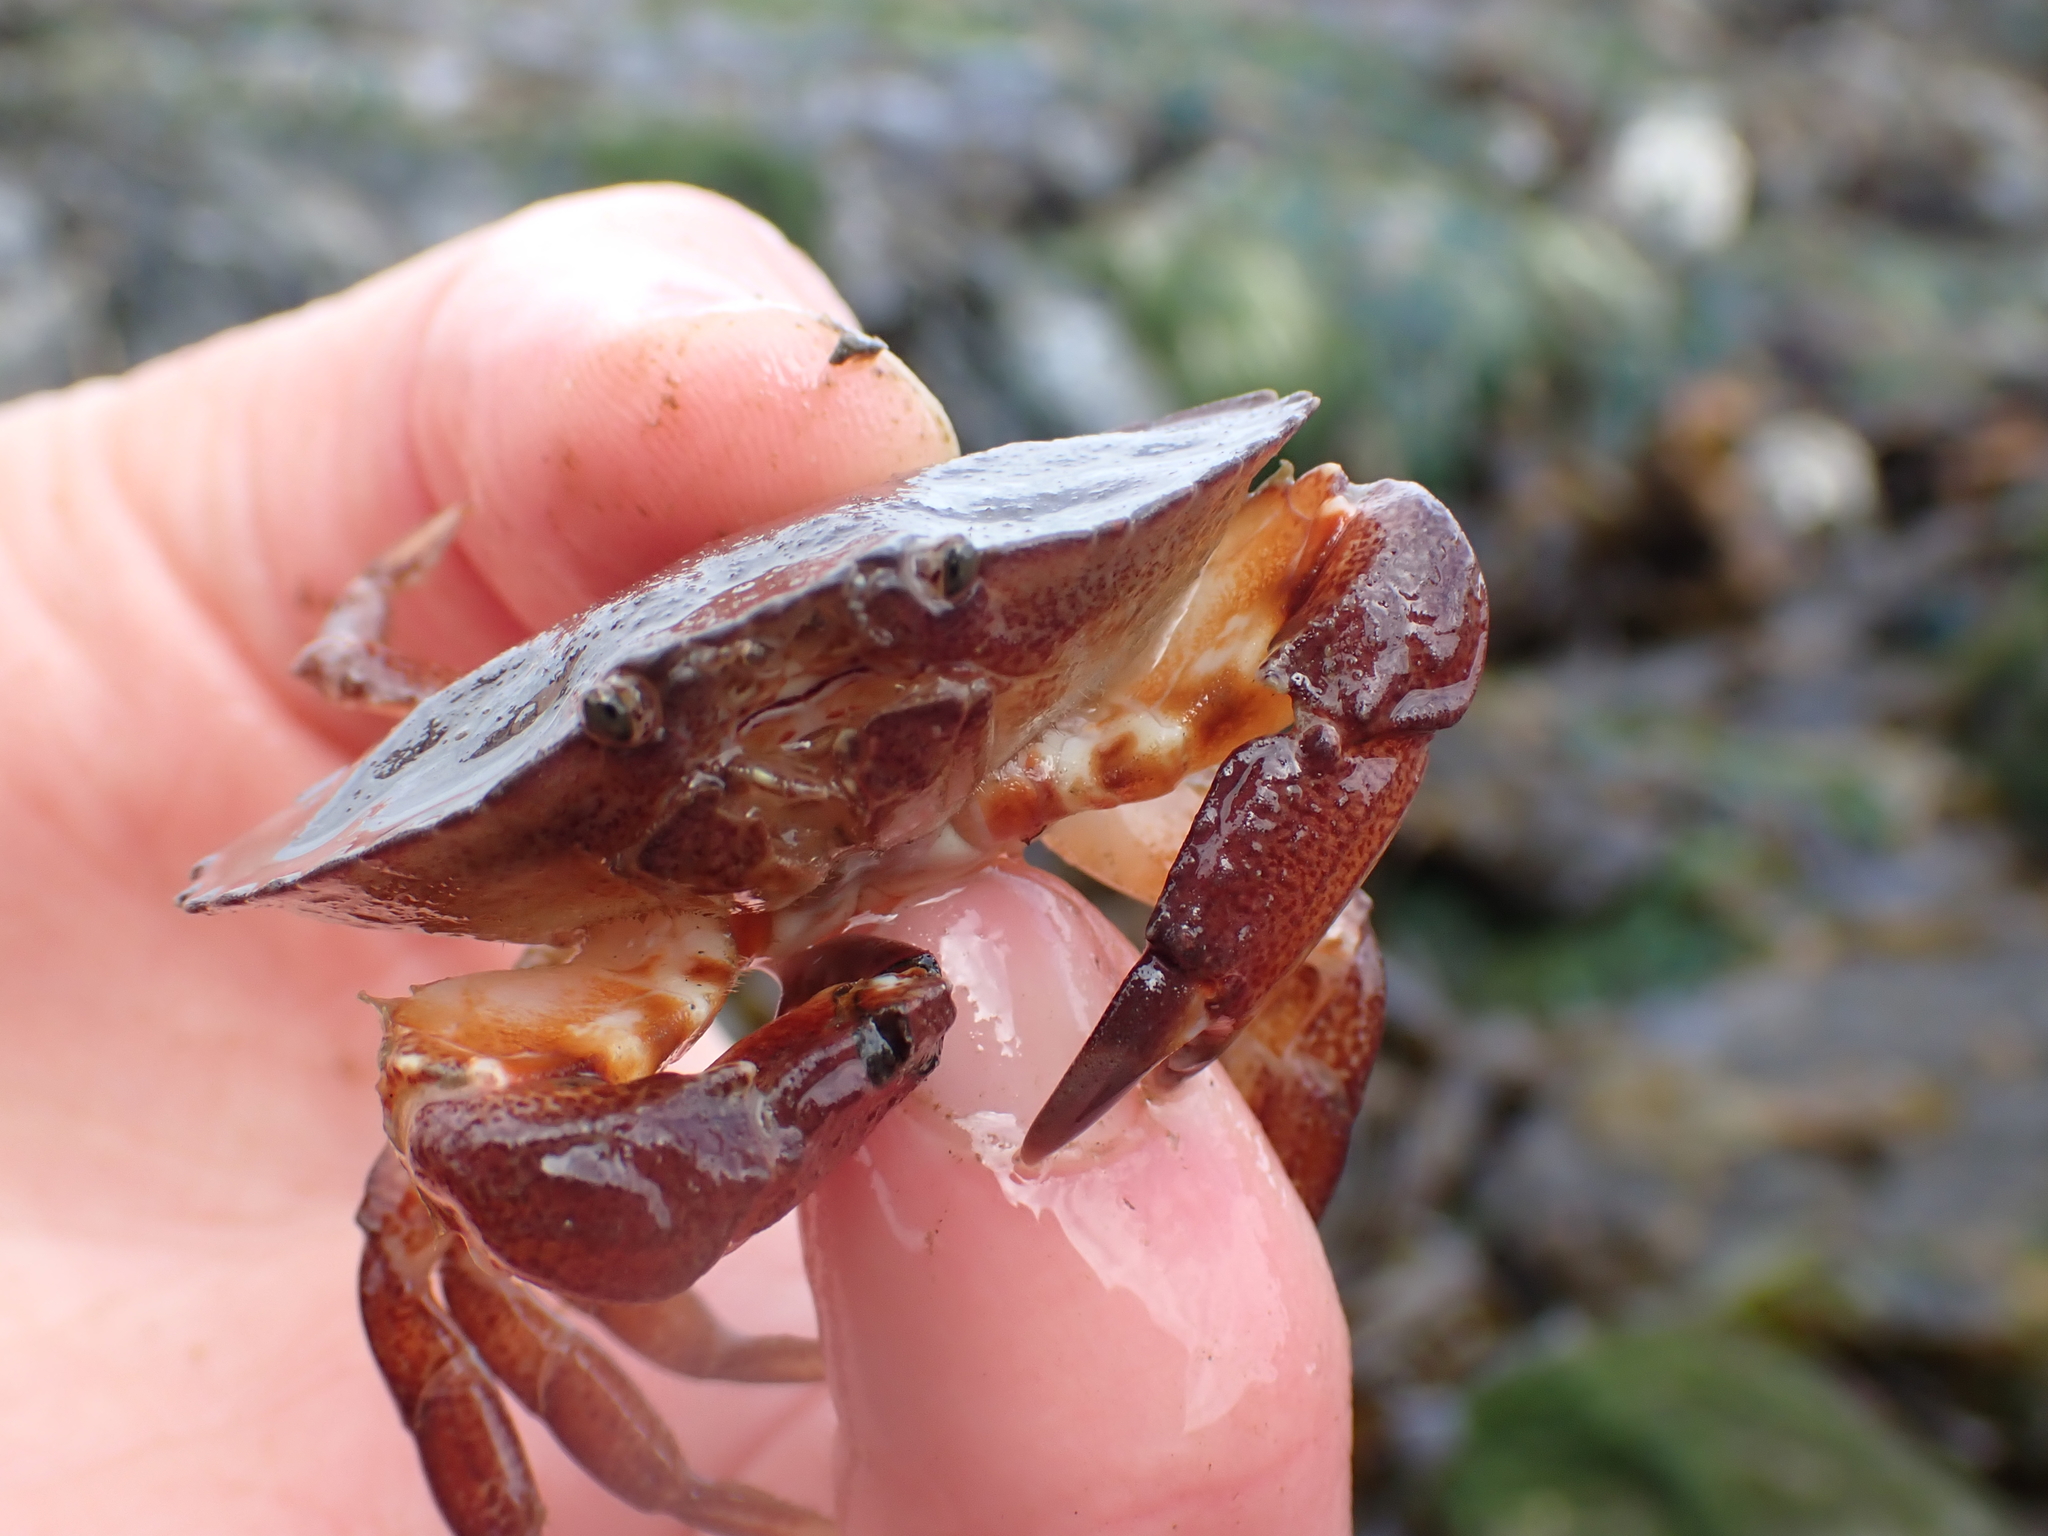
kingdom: Animalia
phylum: Arthropoda
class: Malacostraca
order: Decapoda
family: Cancridae
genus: Cancer
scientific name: Cancer productus
